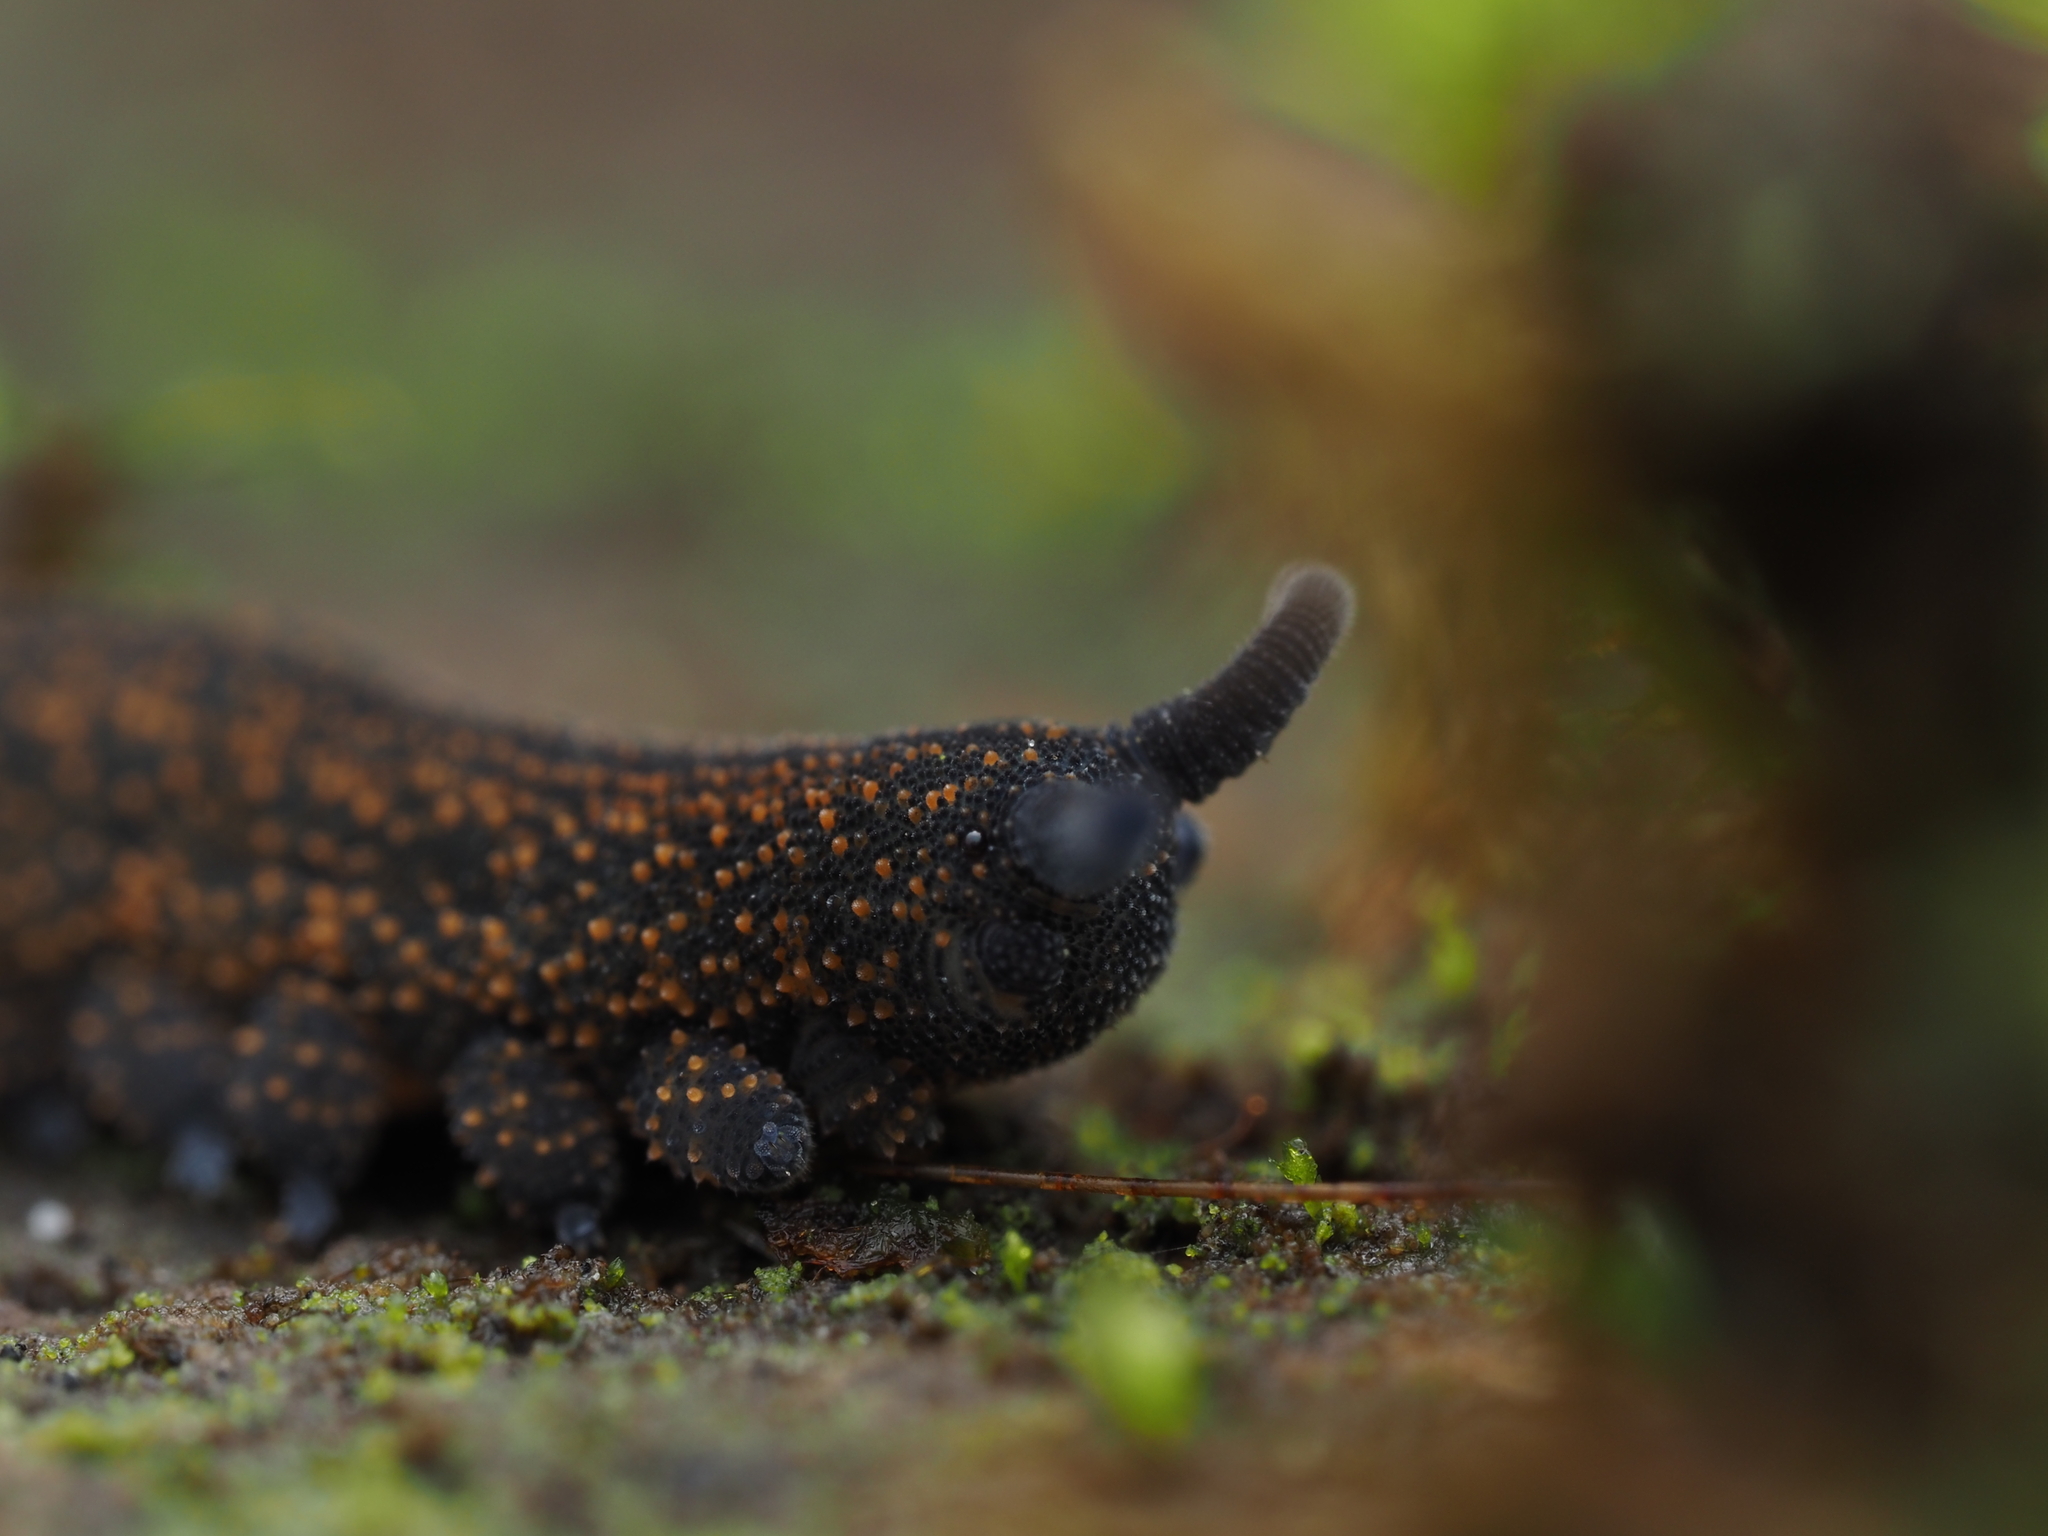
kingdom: Animalia
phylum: Onychophora
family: Peripatopsidae
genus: Peripatoides
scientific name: Peripatoides novaezealandiae
